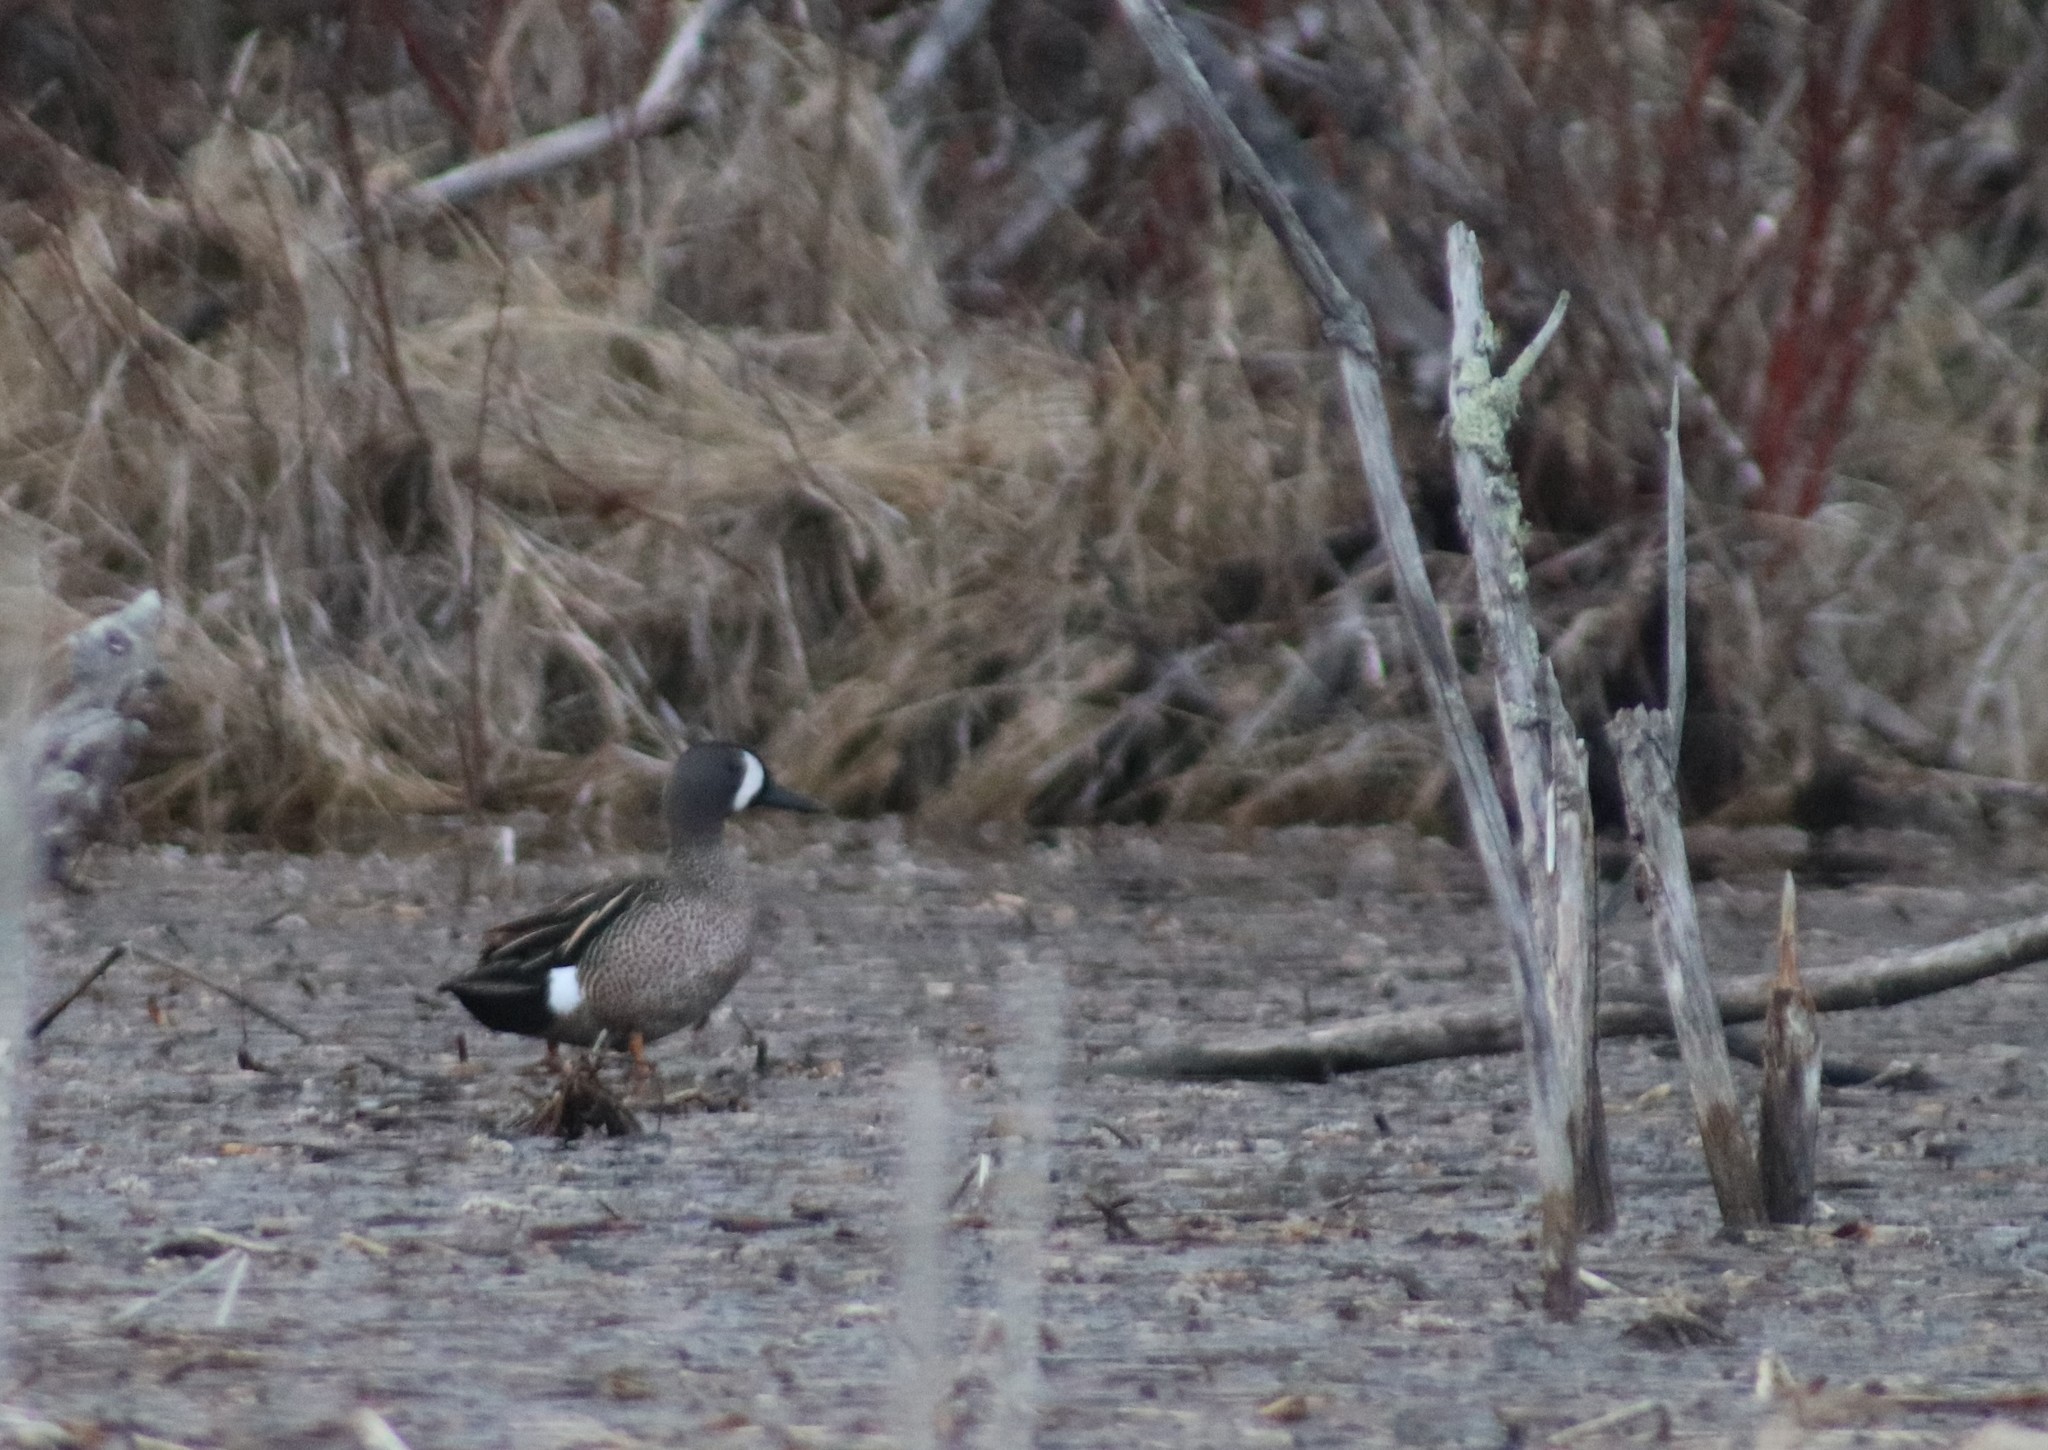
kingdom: Animalia
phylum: Chordata
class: Aves
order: Anseriformes
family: Anatidae
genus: Spatula
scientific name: Spatula discors
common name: Blue-winged teal
